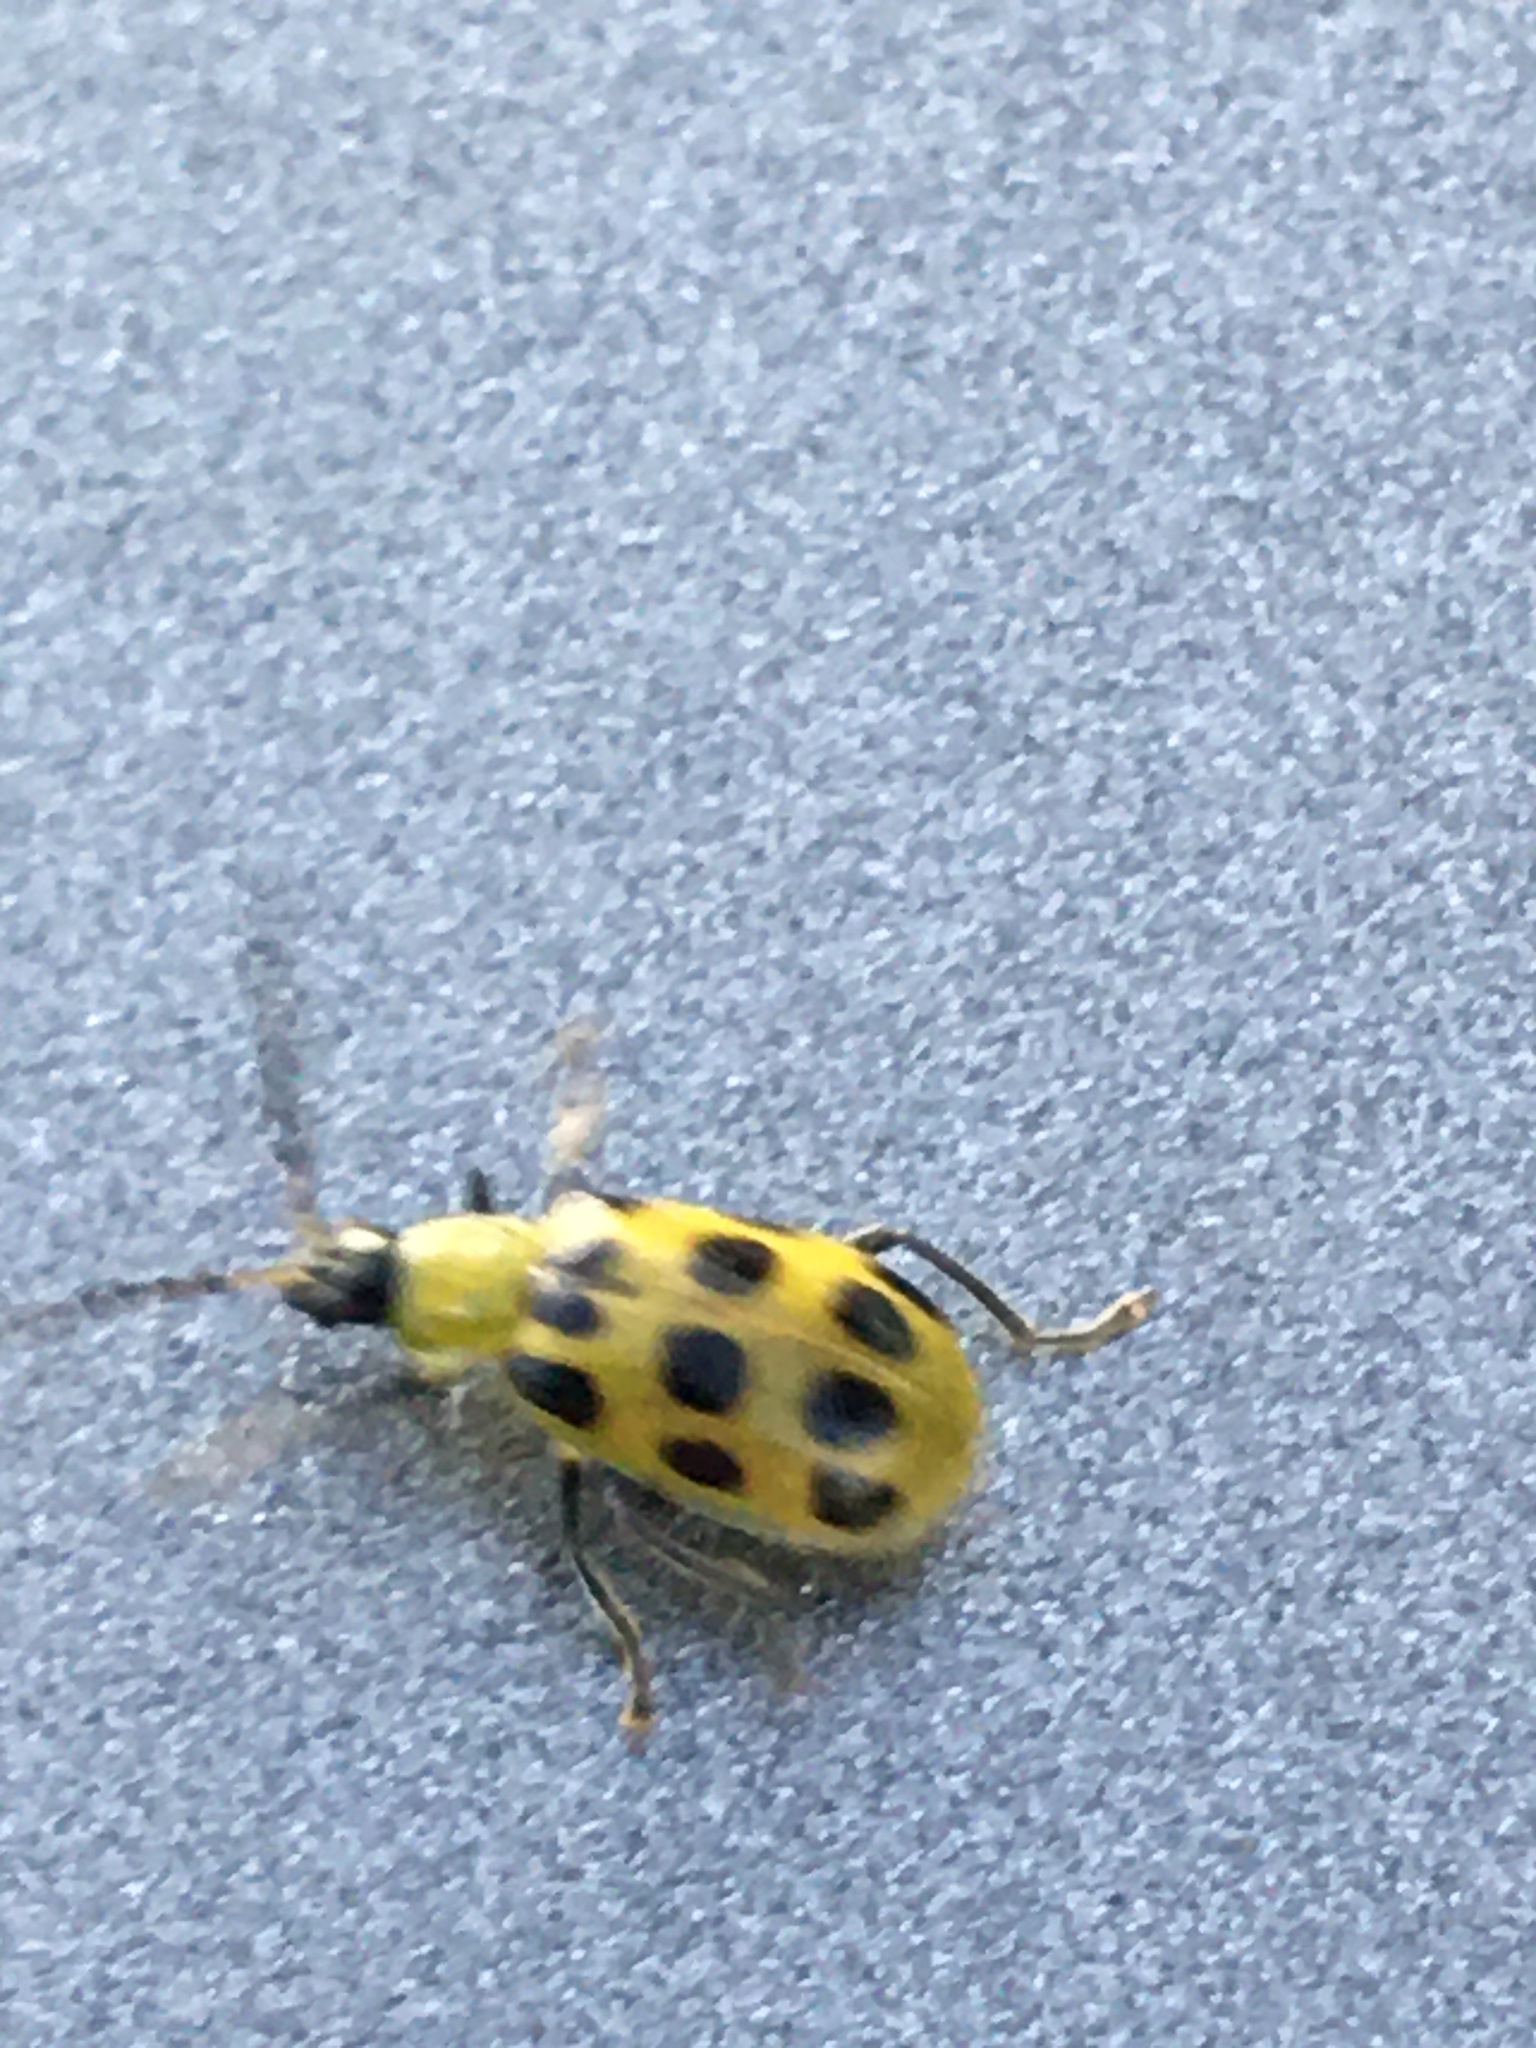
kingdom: Animalia
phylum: Arthropoda
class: Insecta
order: Coleoptera
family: Chrysomelidae
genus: Diabrotica
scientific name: Diabrotica undecimpunctata
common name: Spotted cucumber beetle
